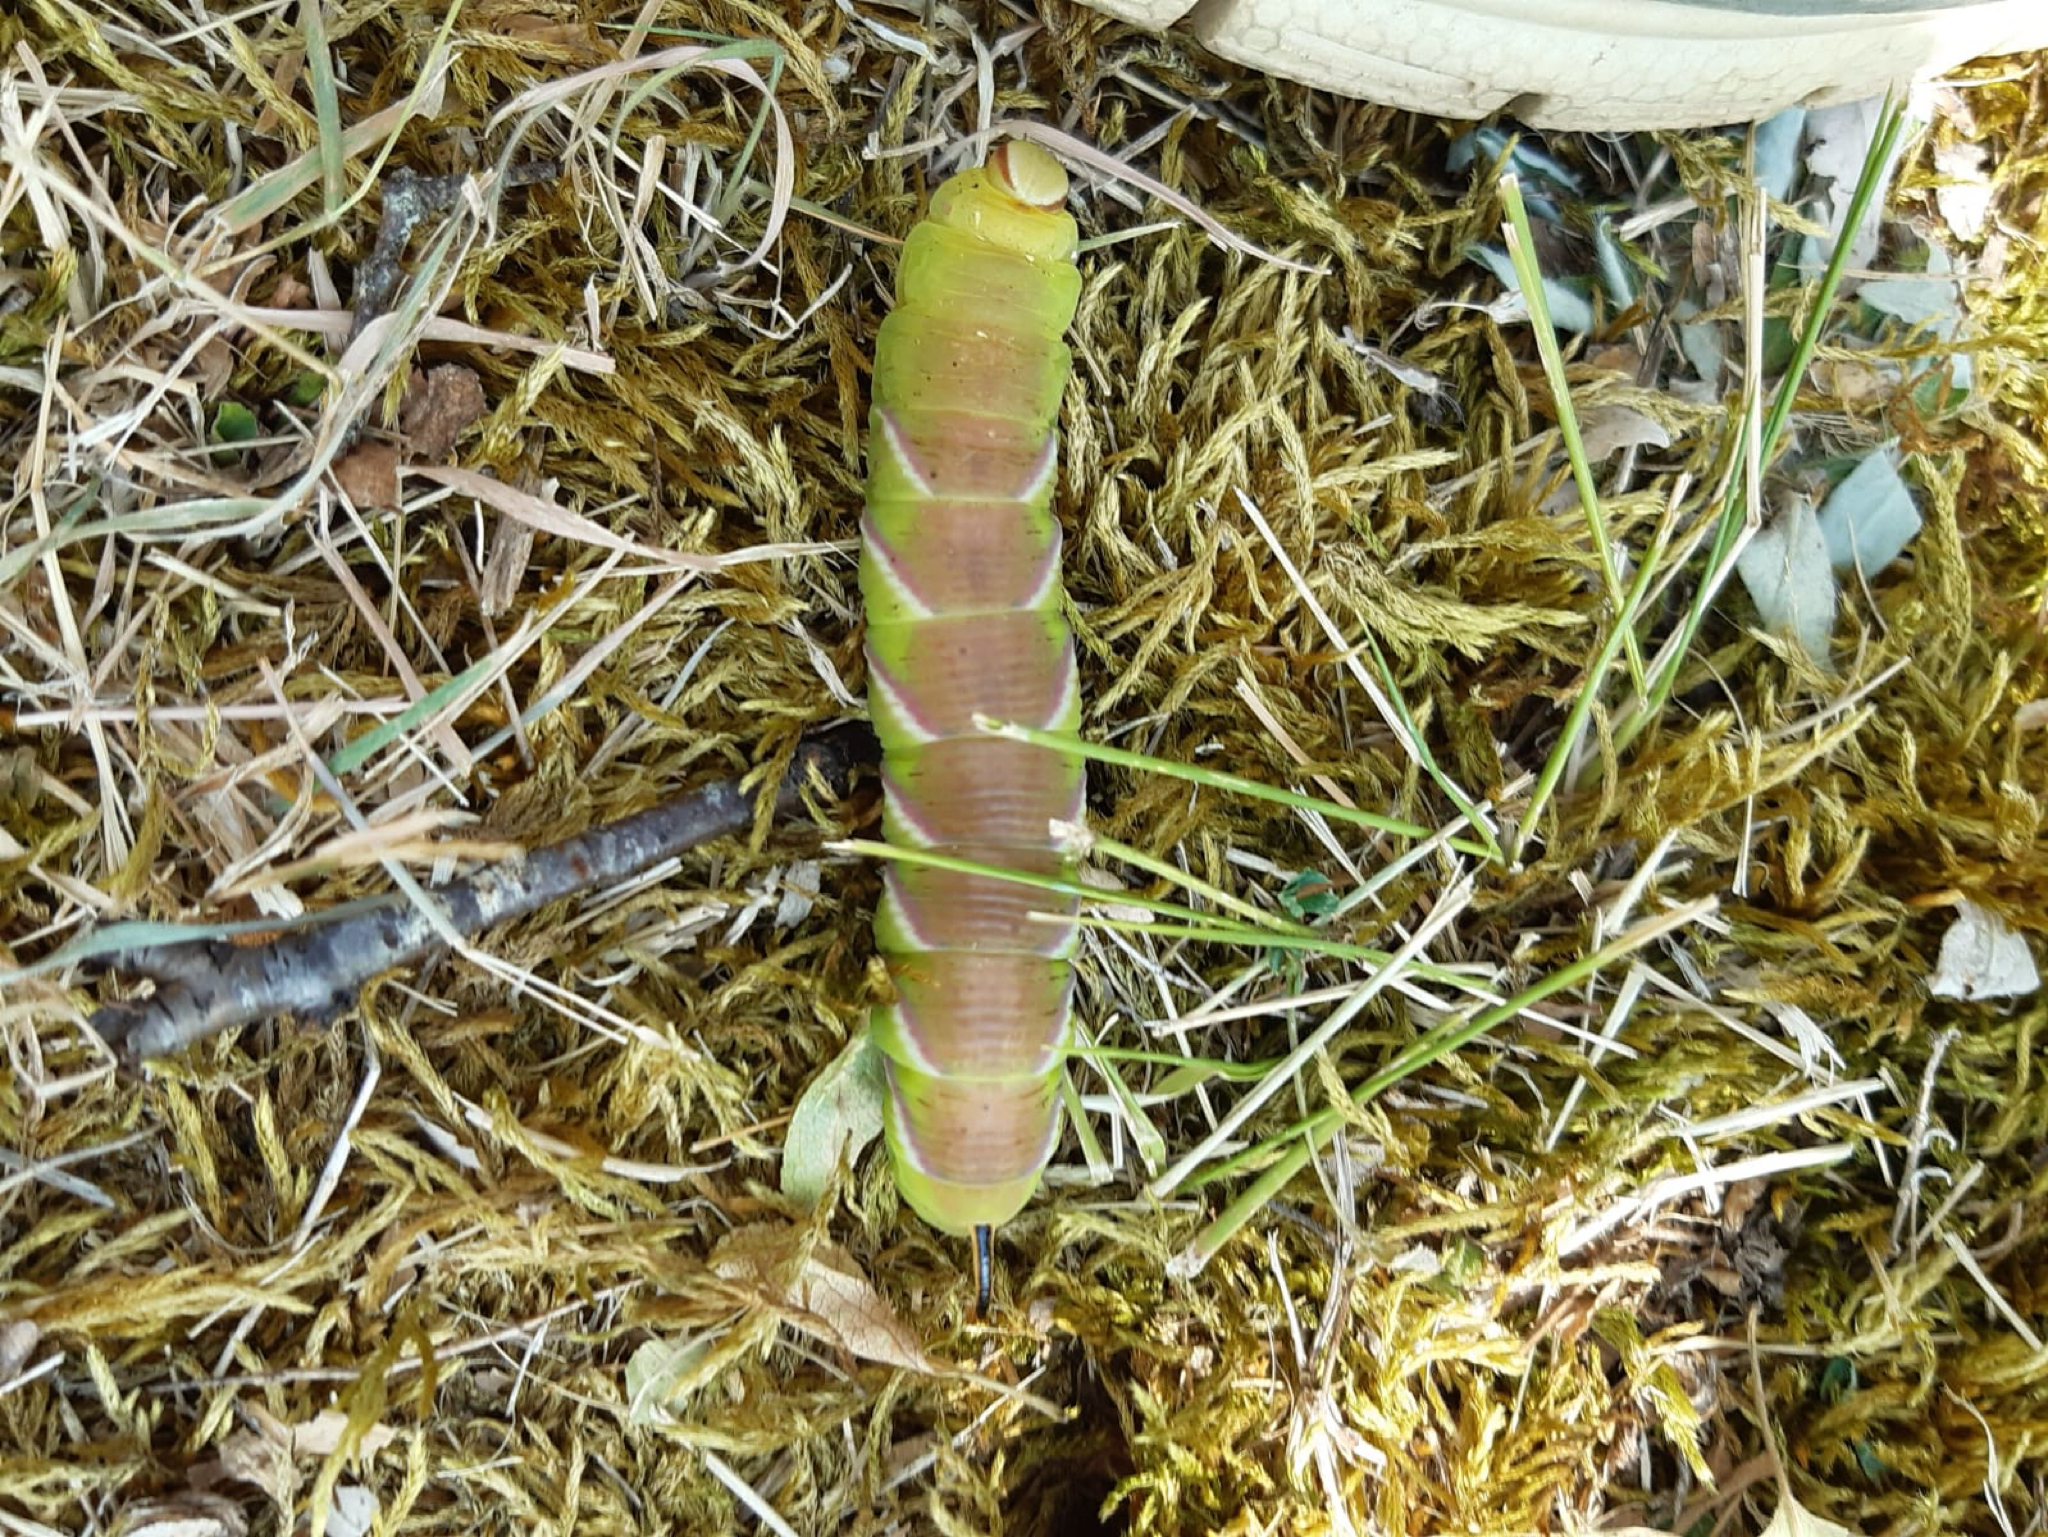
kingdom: Animalia
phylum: Arthropoda
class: Insecta
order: Lepidoptera
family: Sphingidae
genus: Sphinx
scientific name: Sphinx ligustri
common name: Privet hawk-moth
